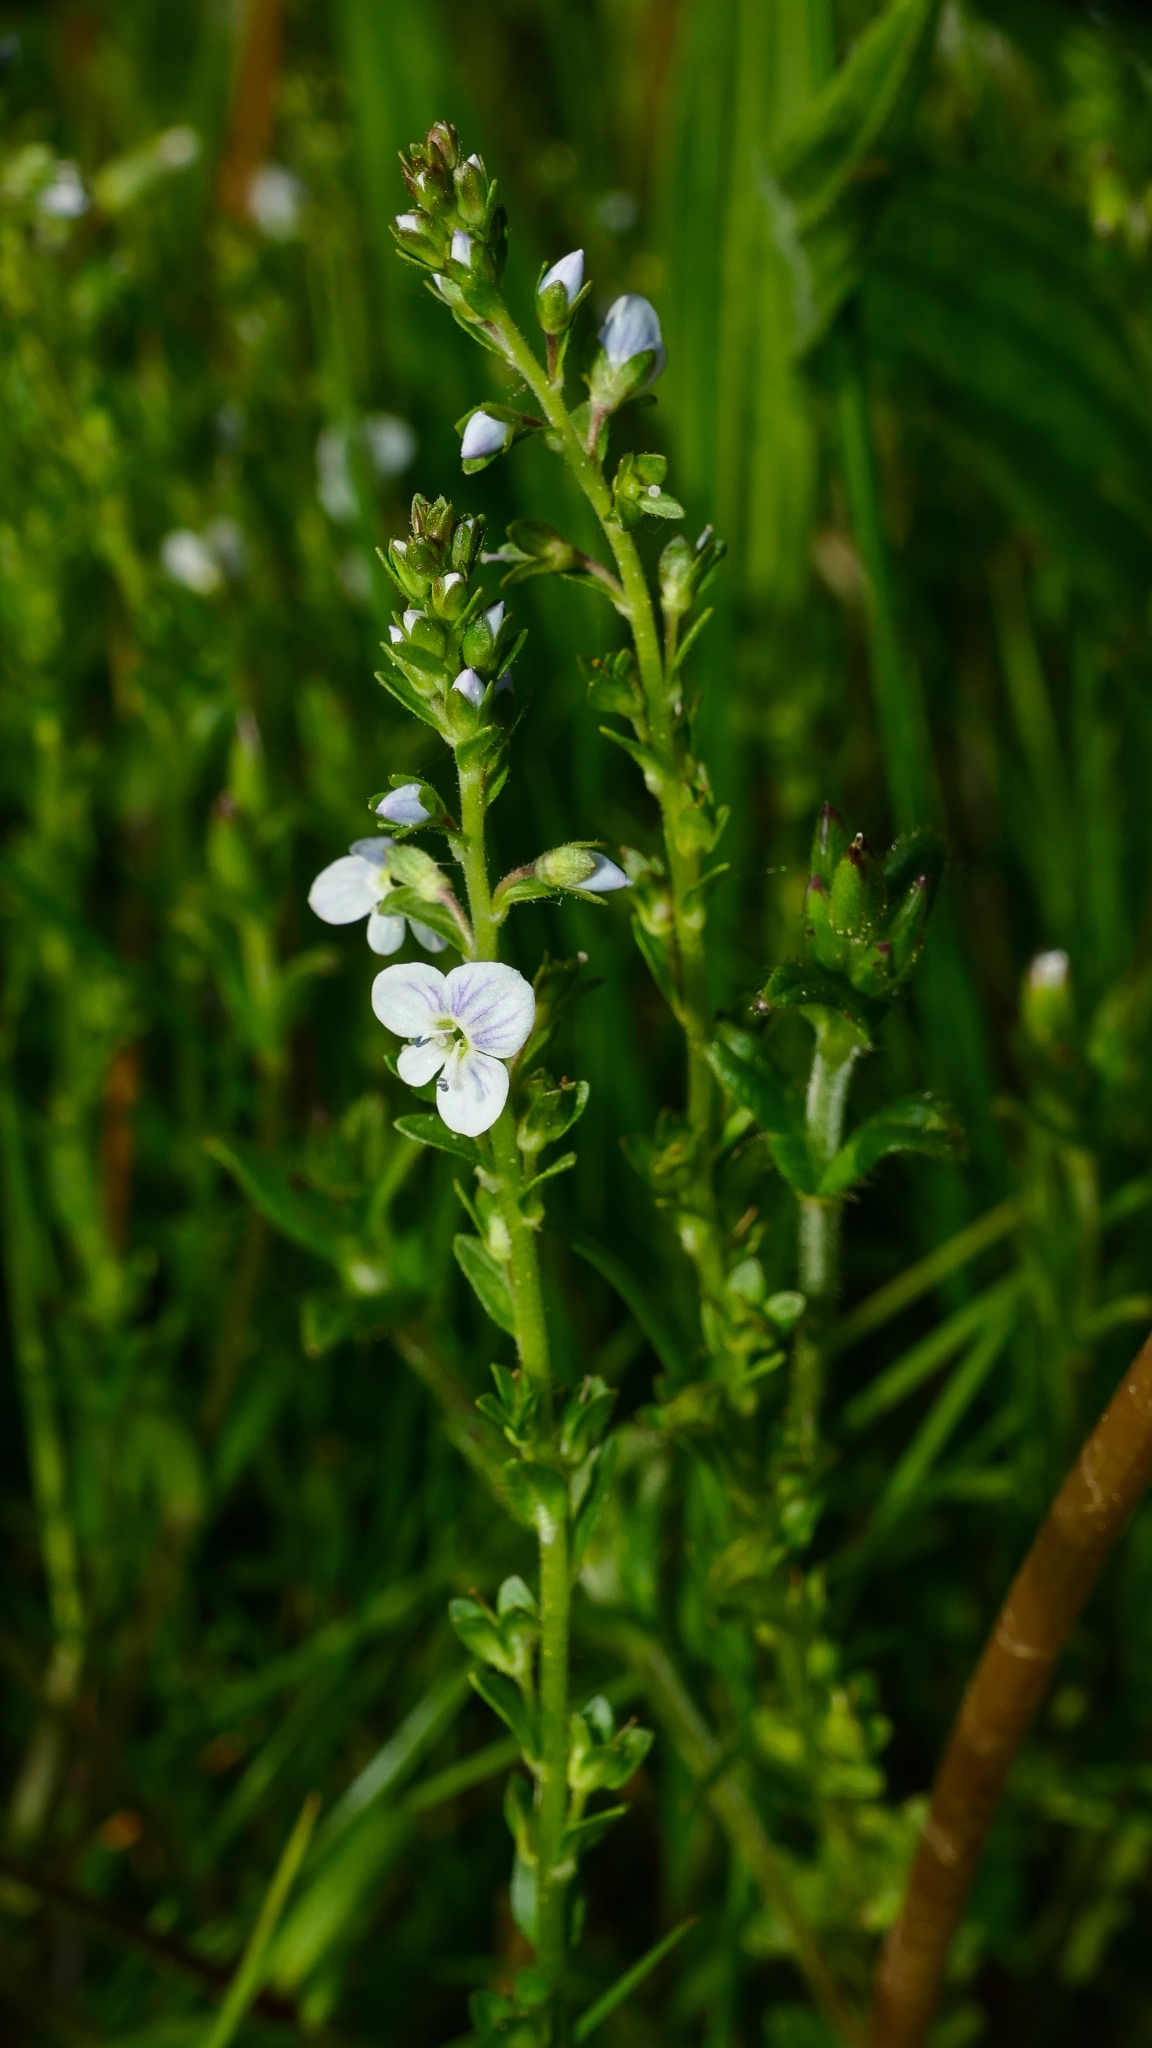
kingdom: Plantae
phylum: Tracheophyta
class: Magnoliopsida
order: Lamiales
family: Plantaginaceae
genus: Veronica
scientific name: Veronica serpyllifolia
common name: Thyme-leaved speedwell
